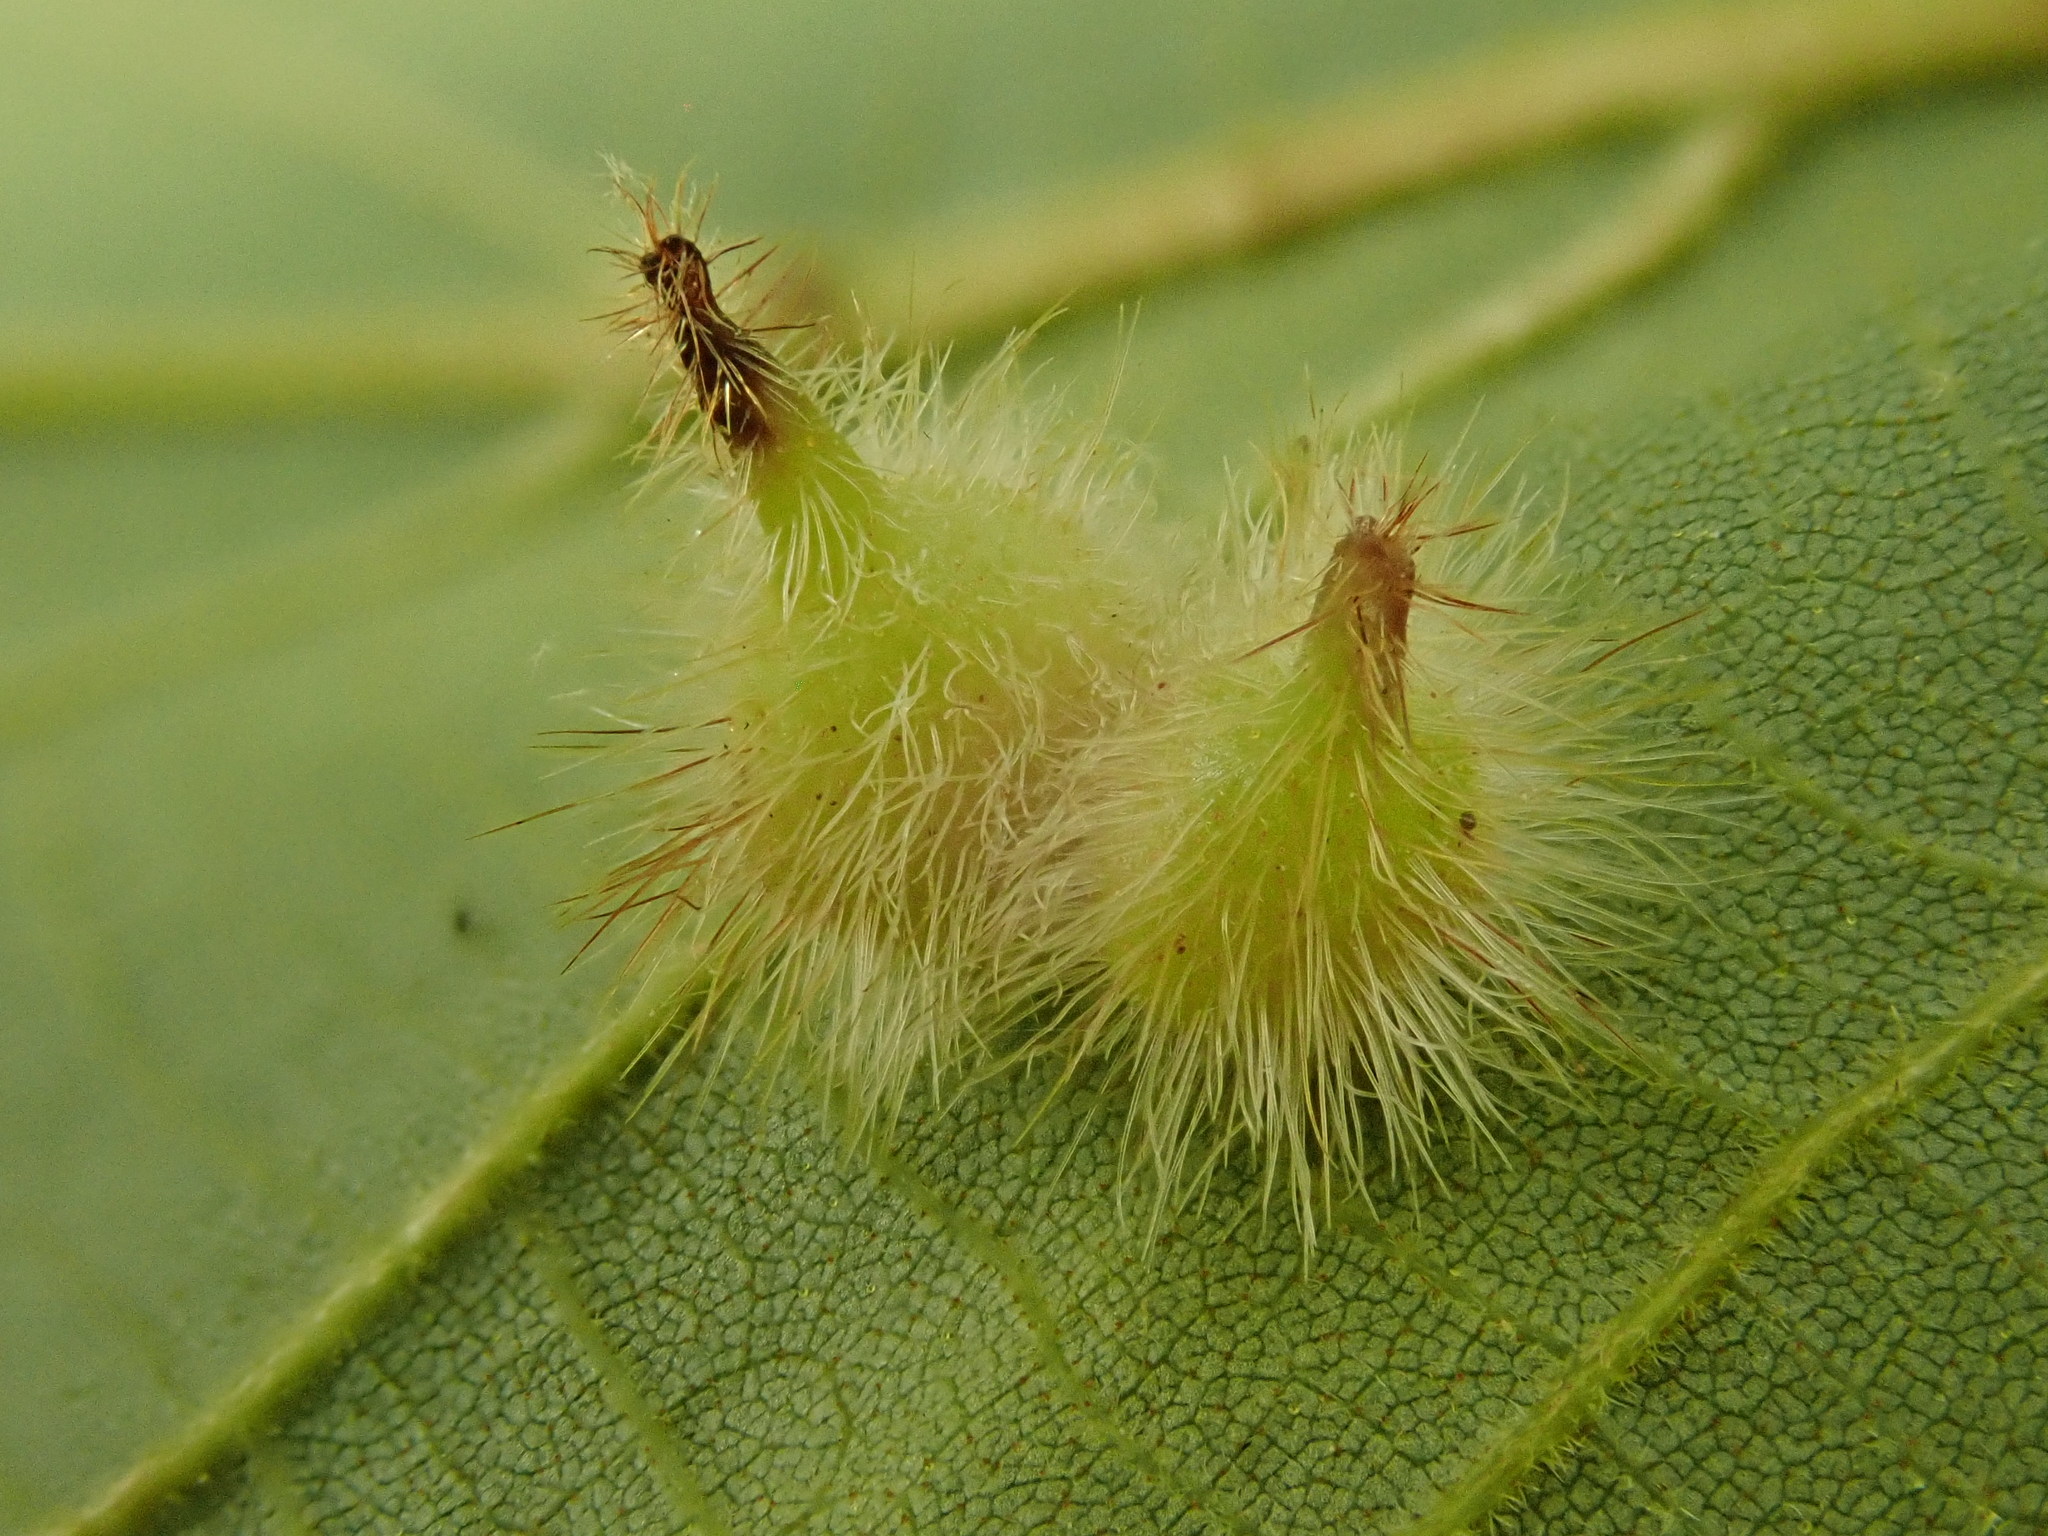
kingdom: Animalia
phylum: Arthropoda
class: Insecta
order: Diptera
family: Cecidomyiidae
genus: Caryomyia
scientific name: Caryomyia echinata
